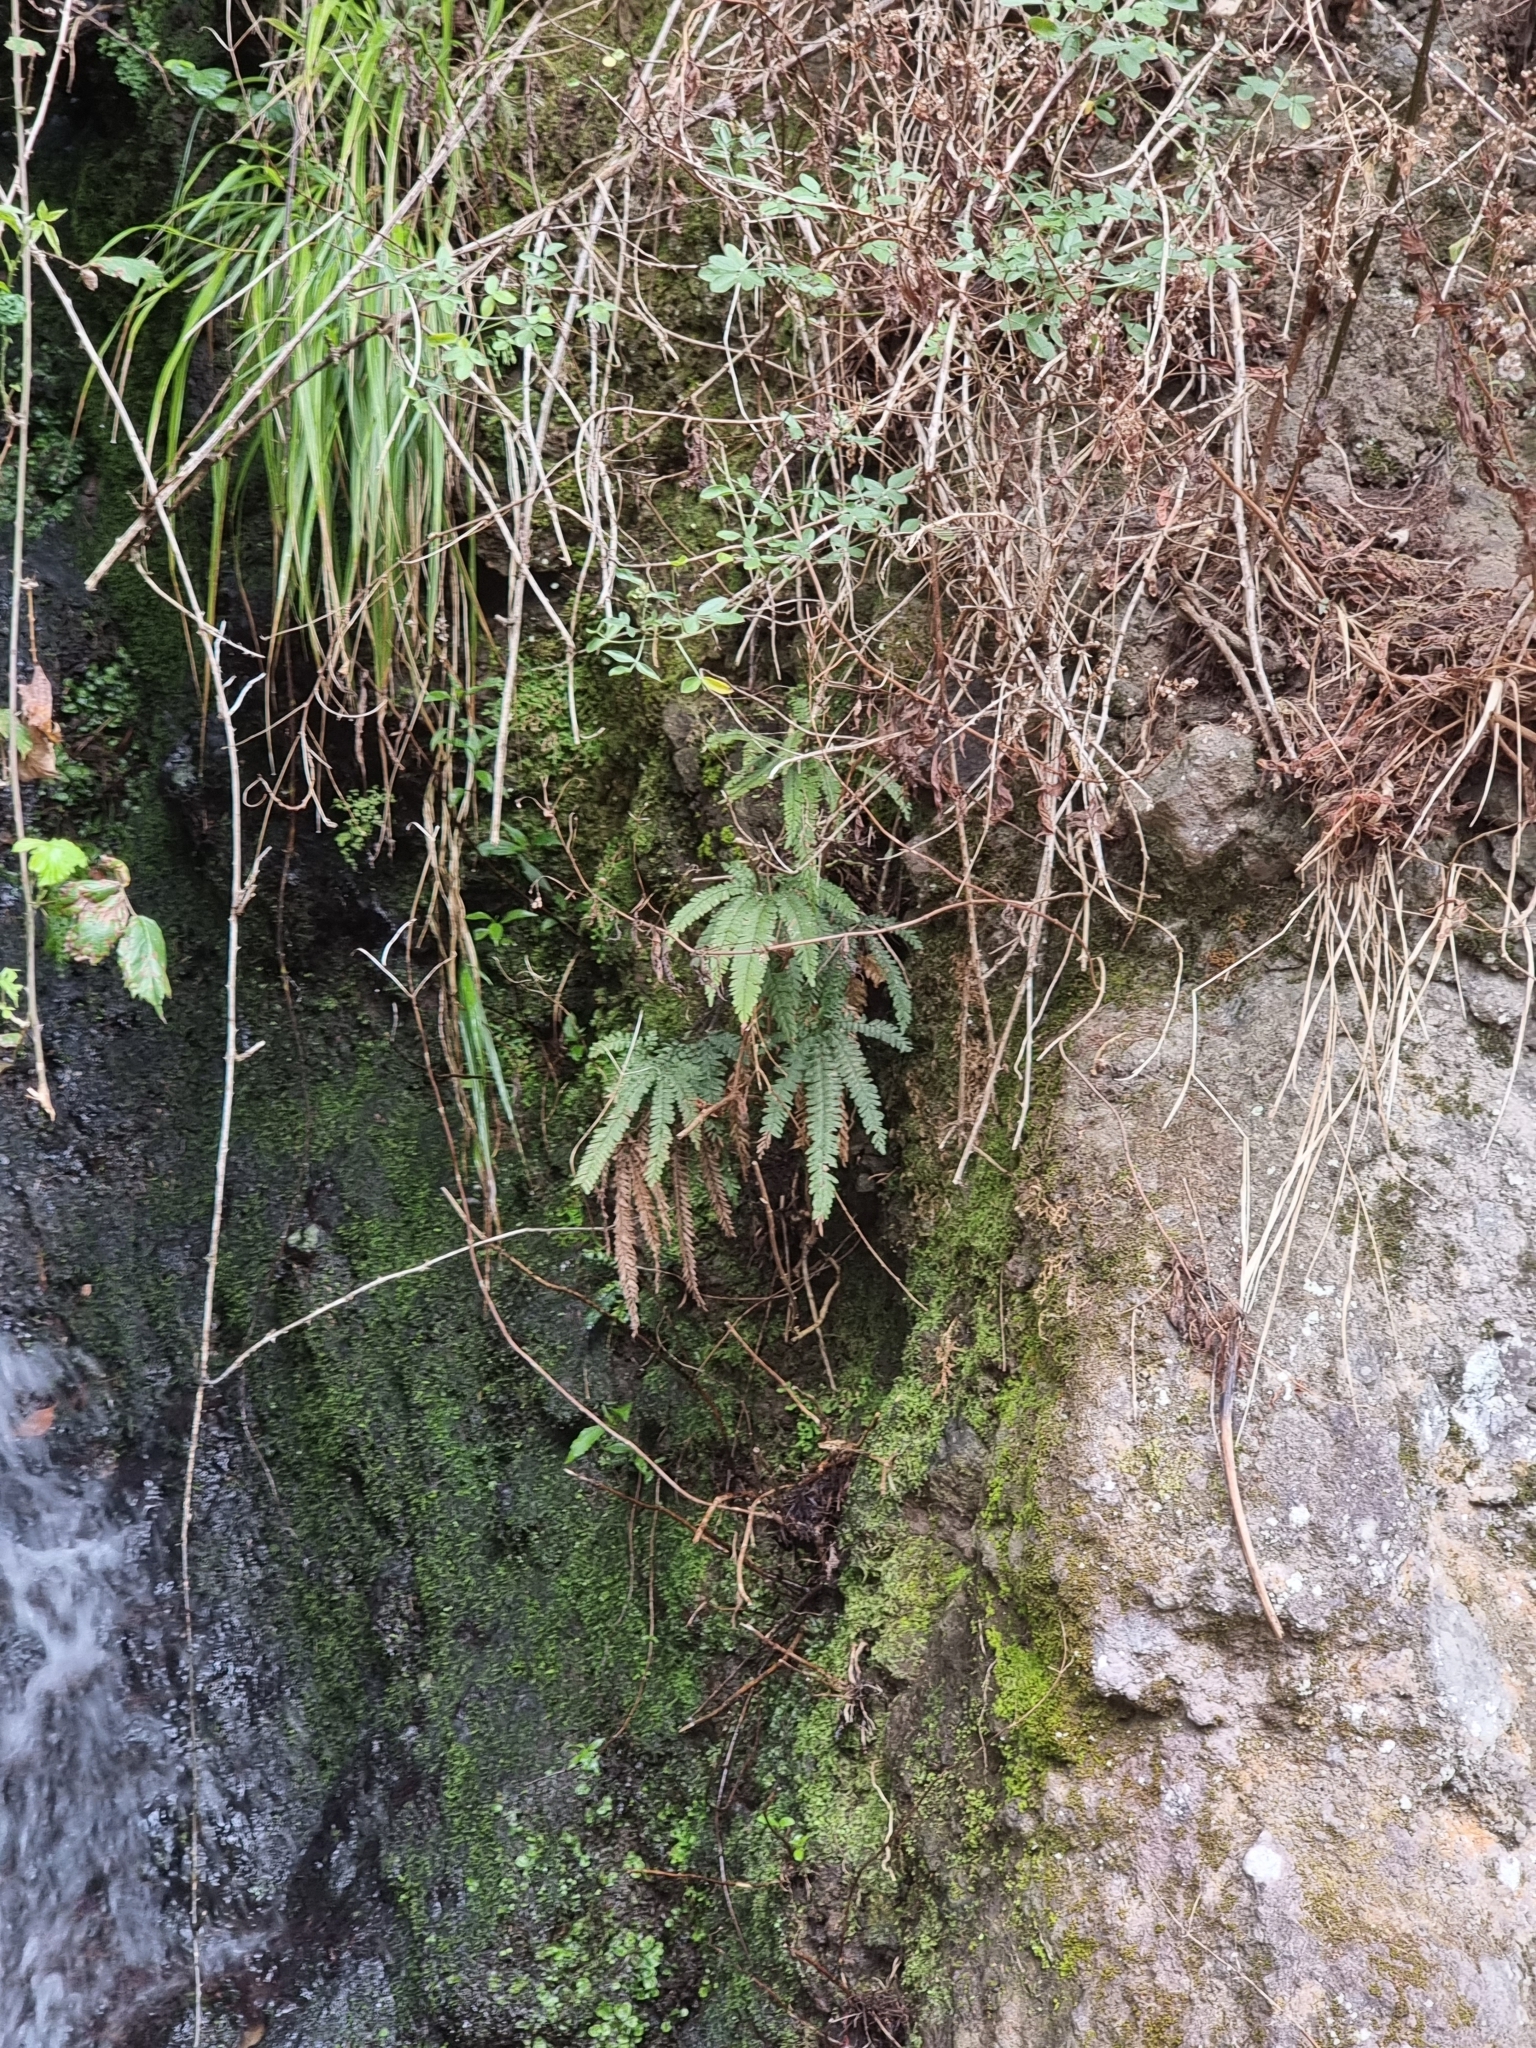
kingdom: Plantae
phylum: Tracheophyta
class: Polypodiopsida
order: Polypodiales
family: Pteridaceae
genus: Adiantum
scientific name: Adiantum hispidulum
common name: Rough maidenhair
